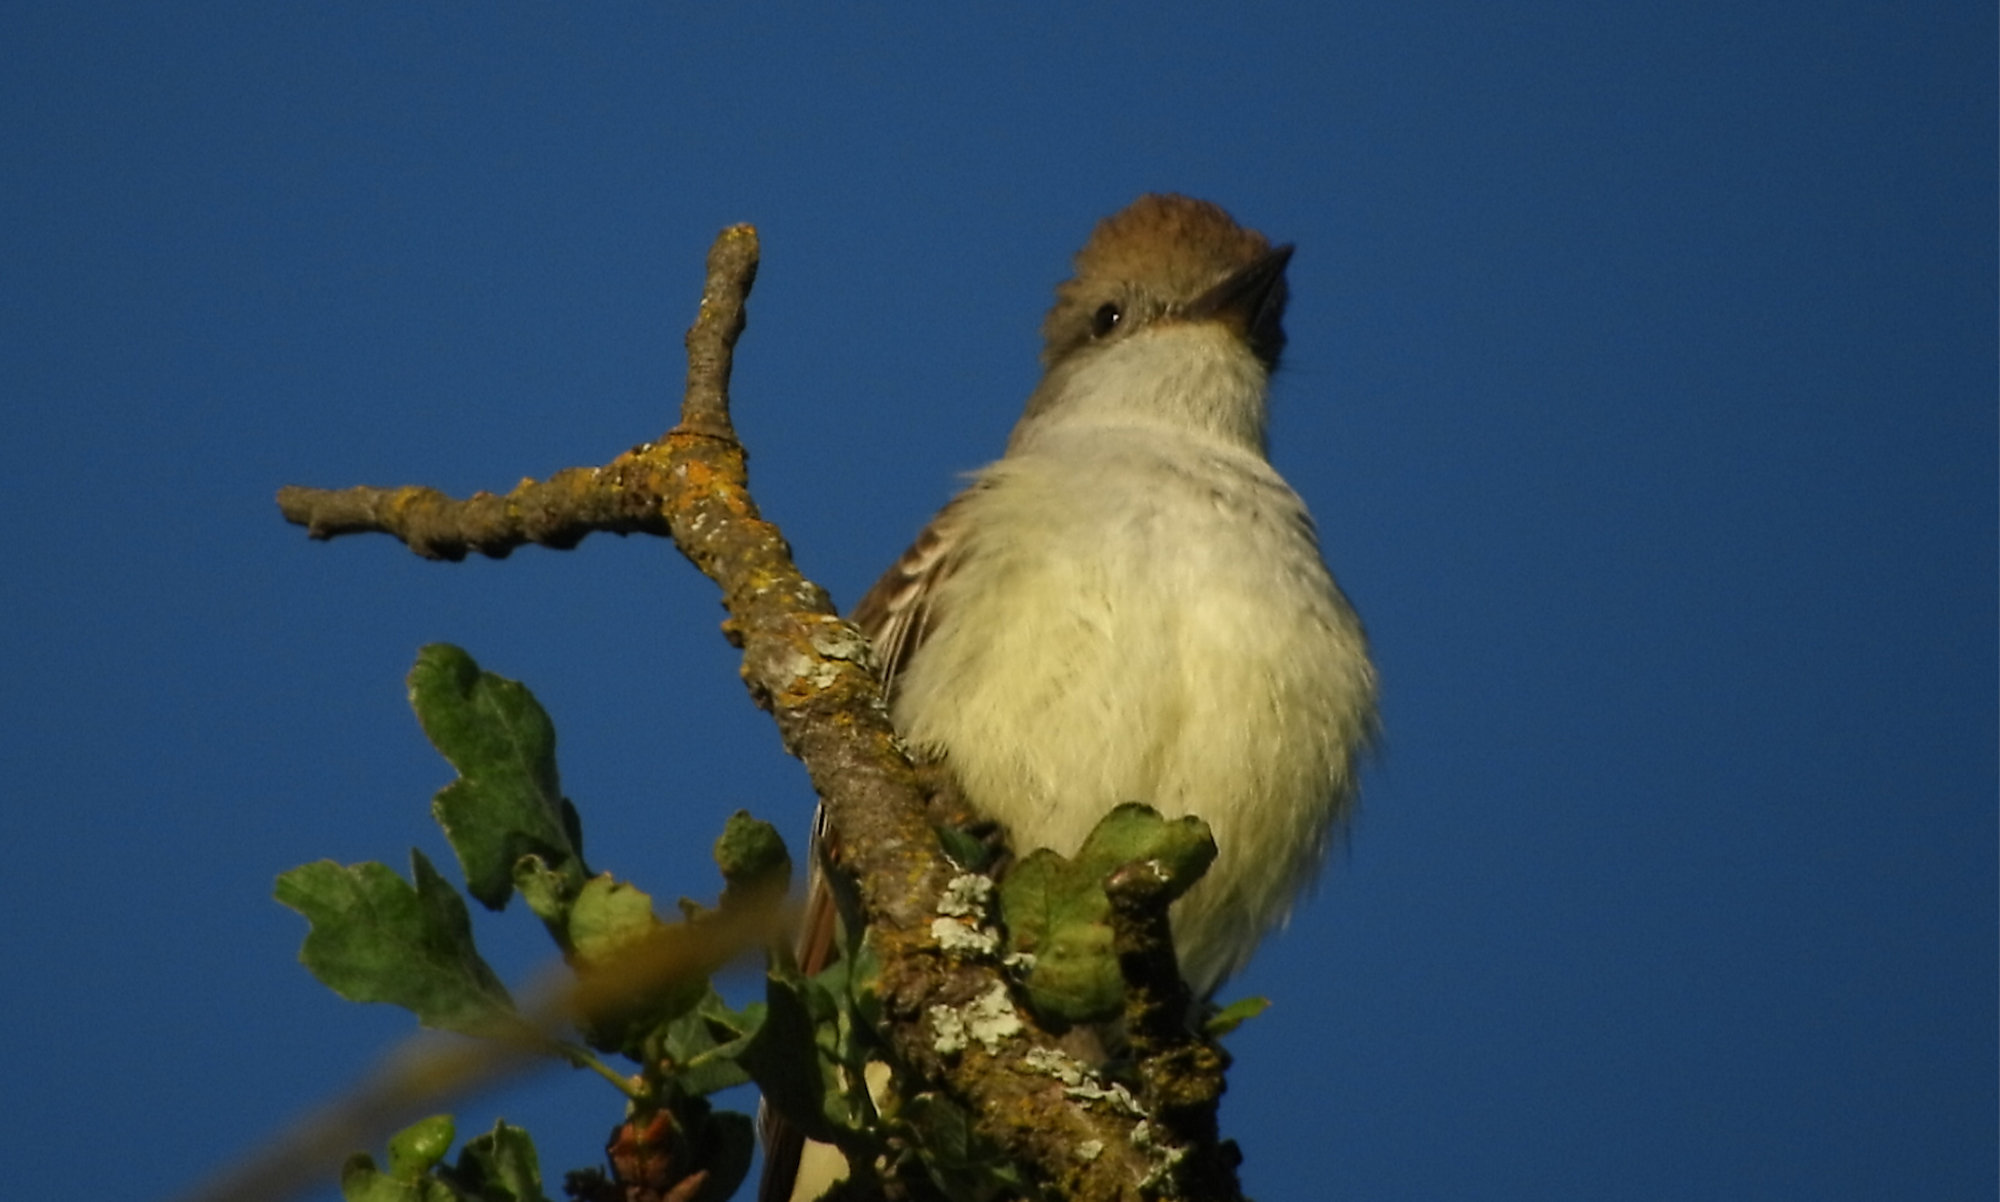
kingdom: Animalia
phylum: Chordata
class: Aves
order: Passeriformes
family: Tyrannidae
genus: Myiarchus
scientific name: Myiarchus cinerascens
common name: Ash-throated flycatcher
